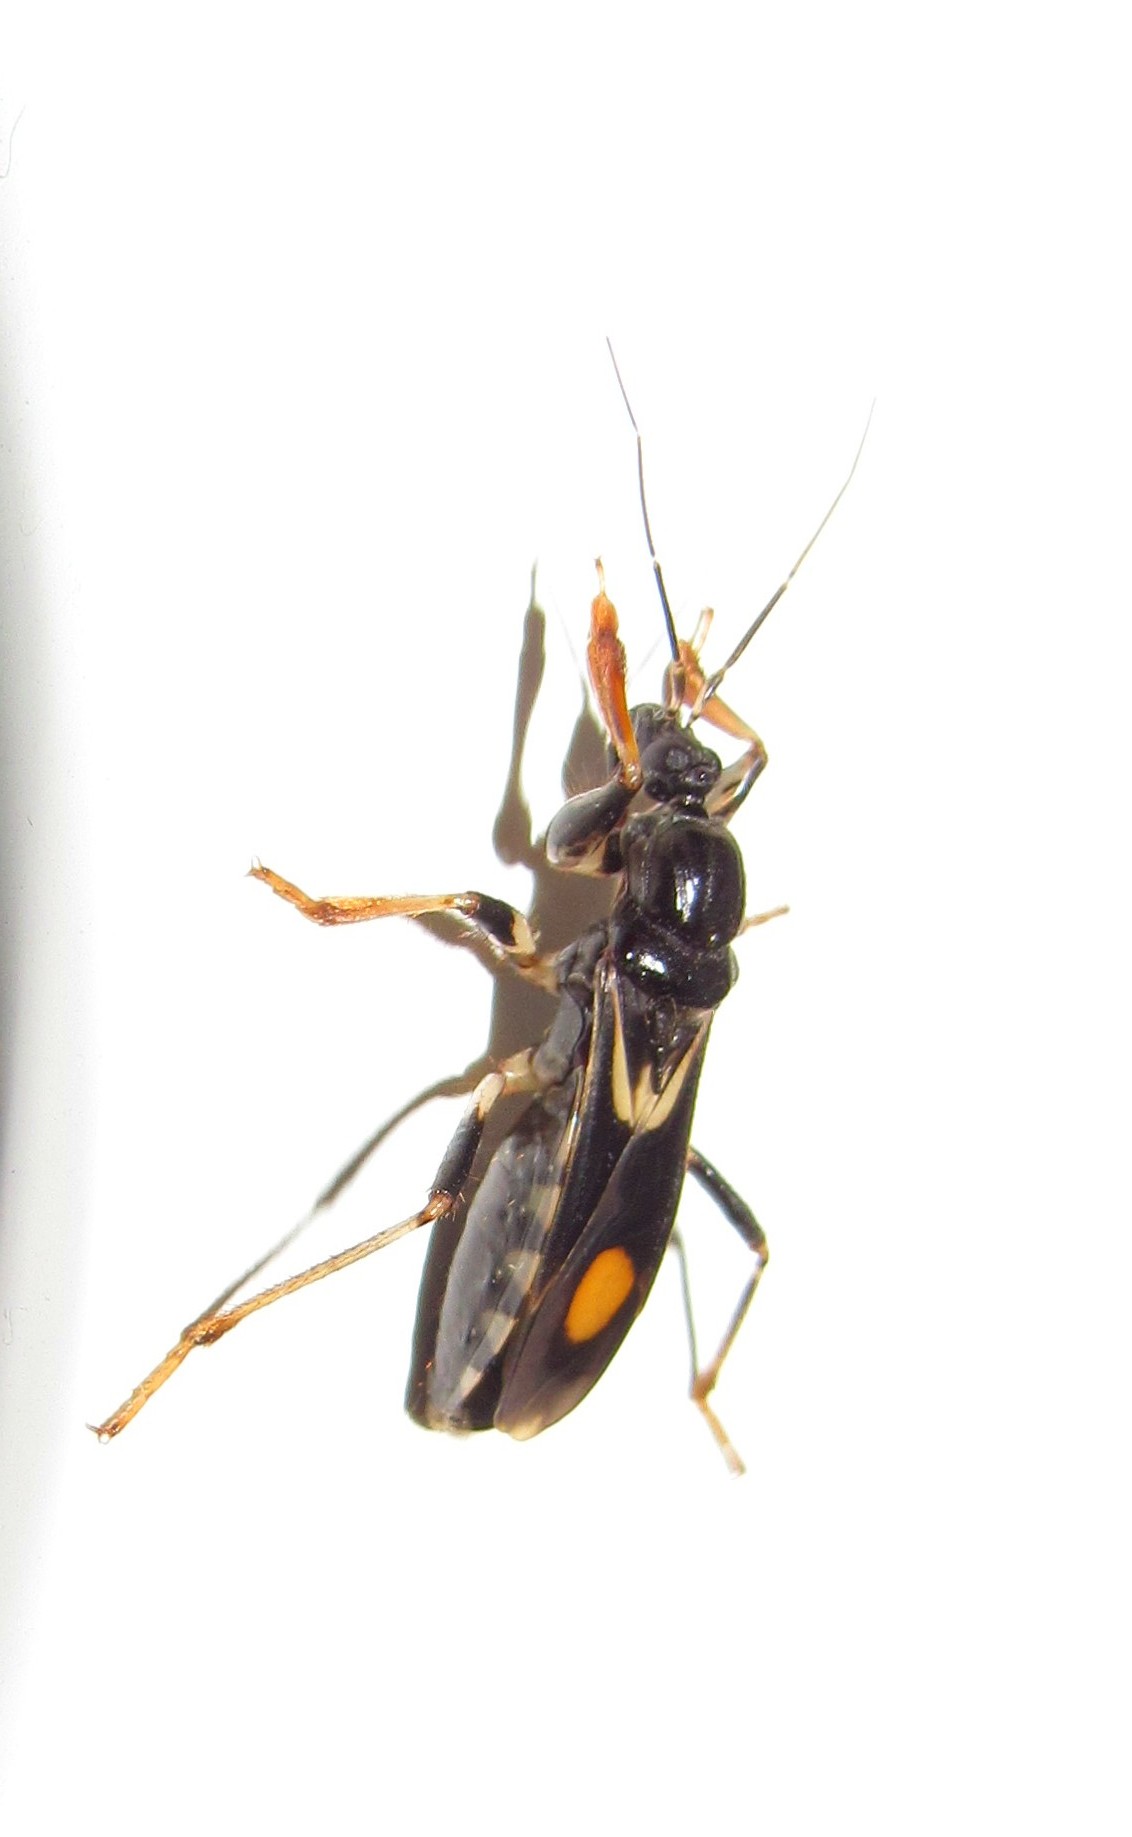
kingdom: Animalia
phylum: Arthropoda
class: Insecta
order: Hemiptera
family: Reduviidae
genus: Rasahus
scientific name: Rasahus hamatus
